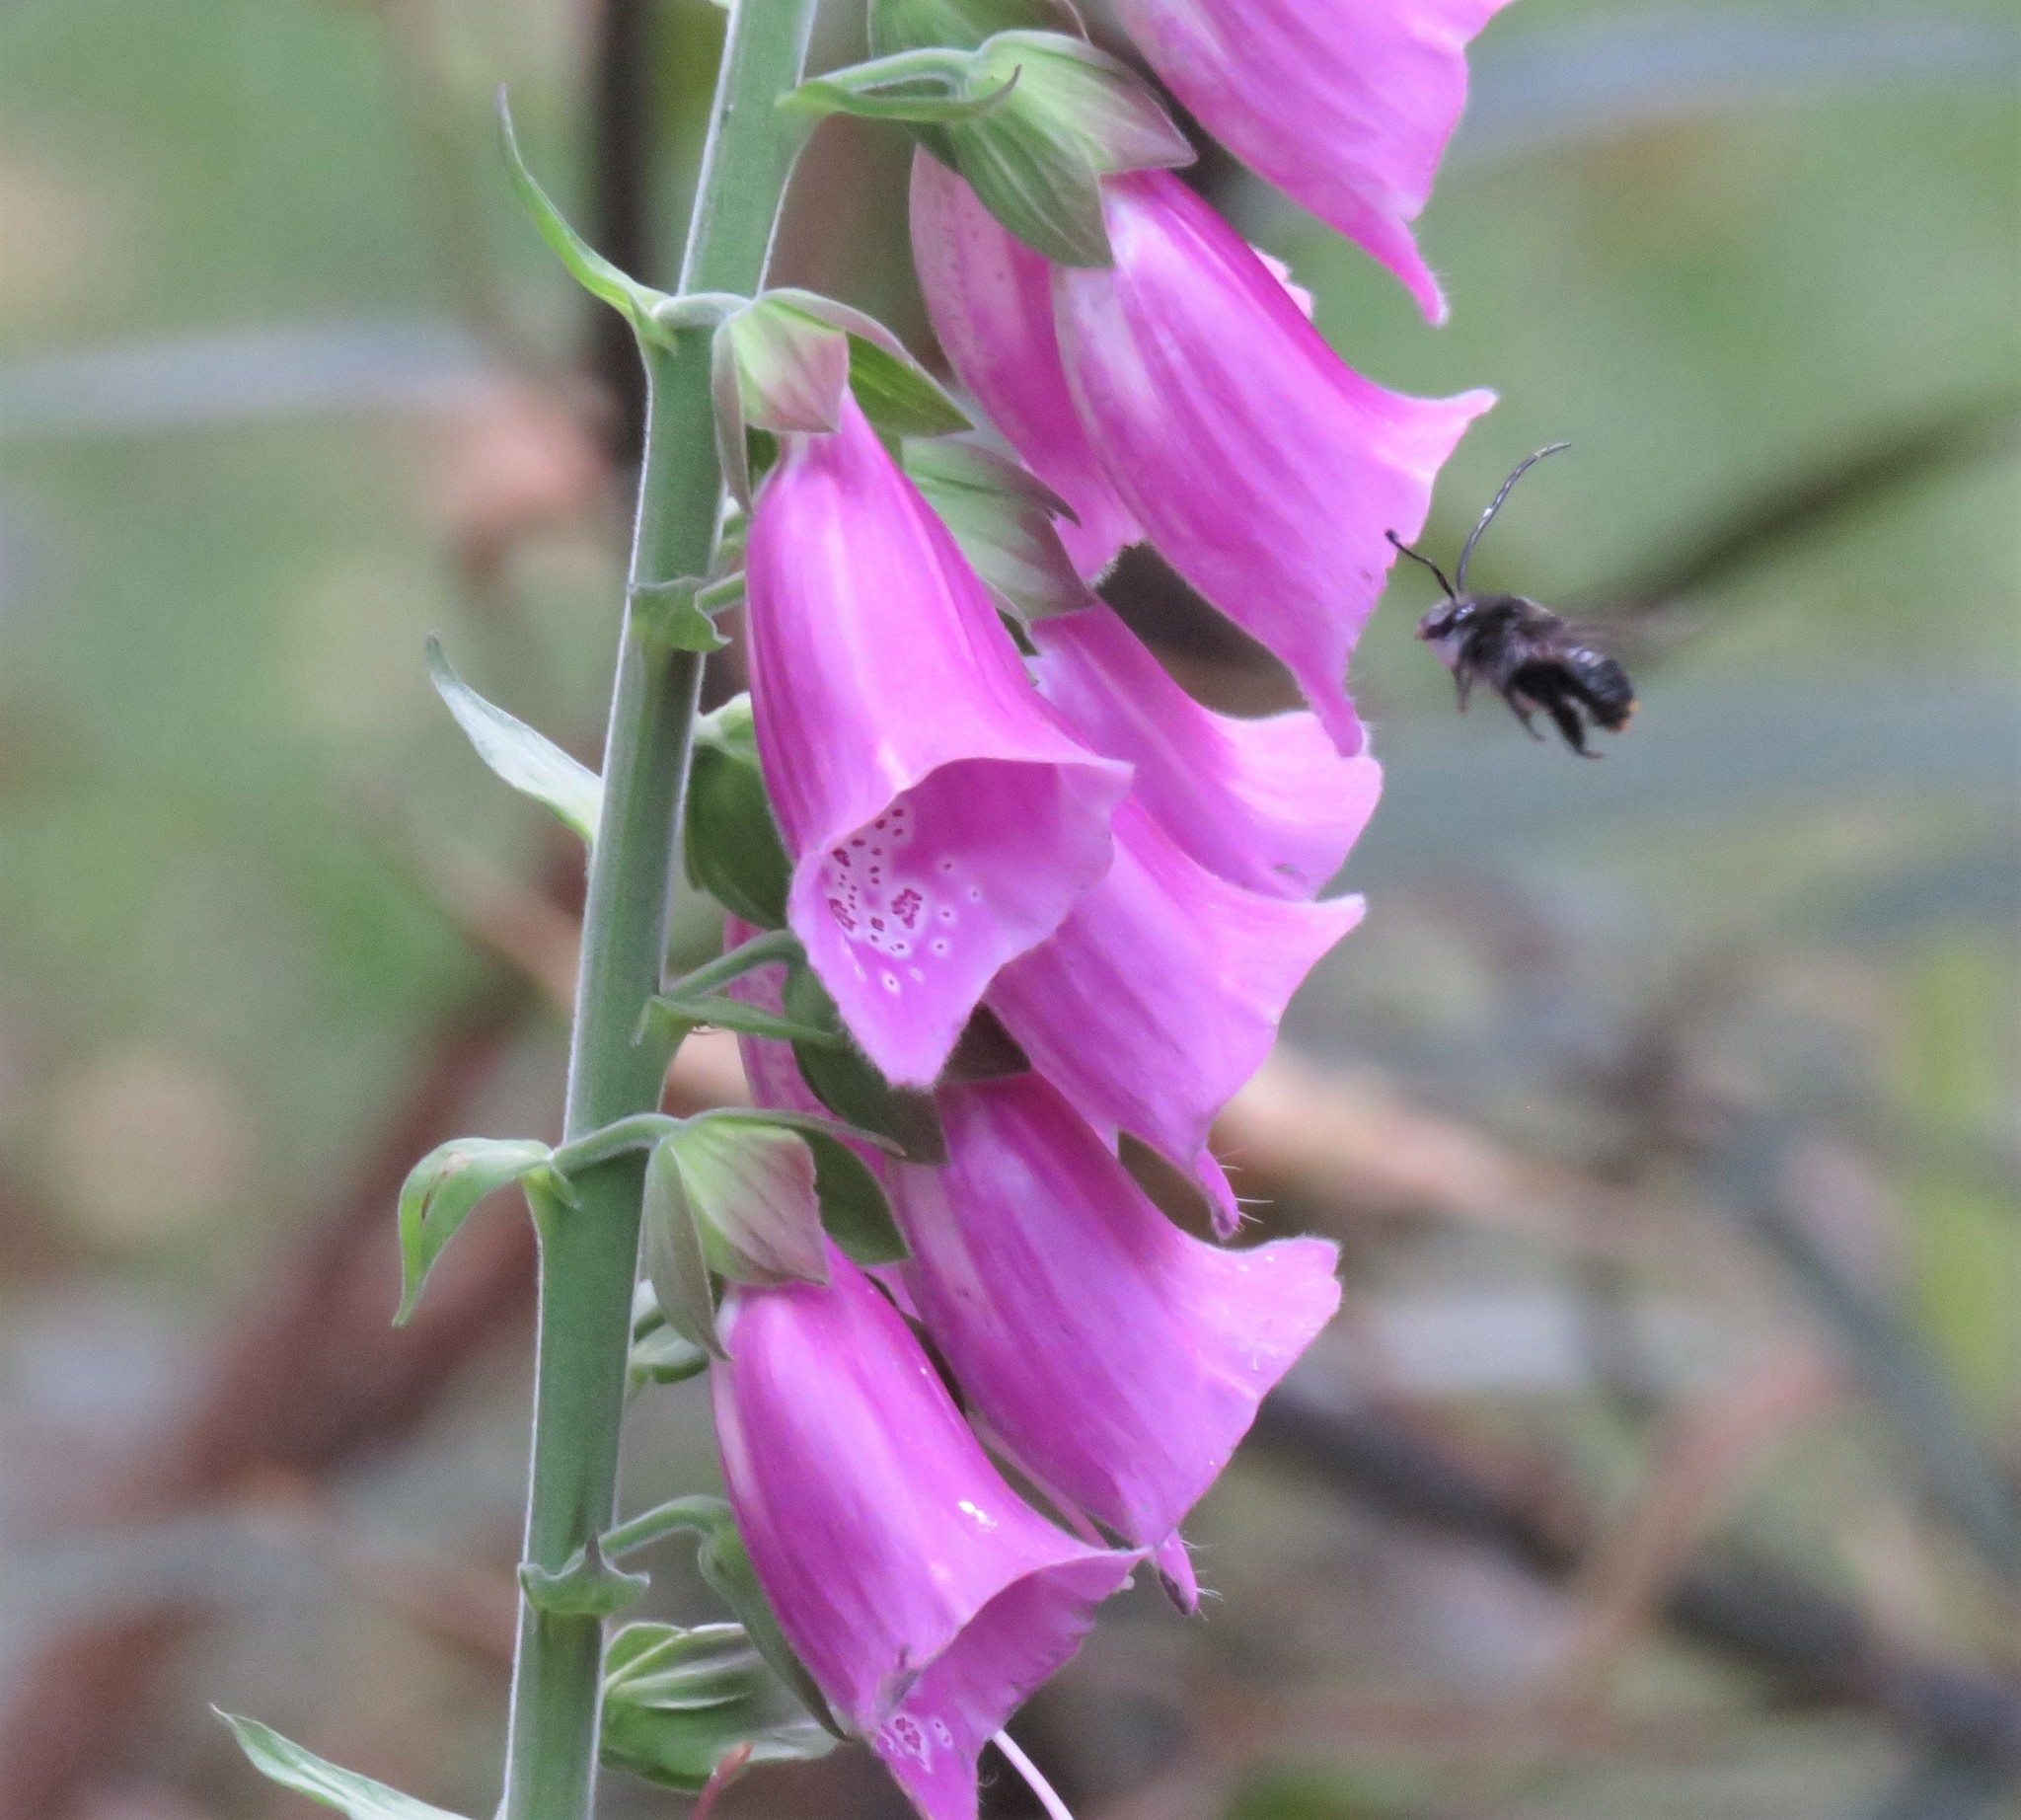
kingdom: Animalia
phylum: Arthropoda
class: Insecta
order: Hymenoptera
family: Apidae
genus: Thygater
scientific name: Thygater aethiops
